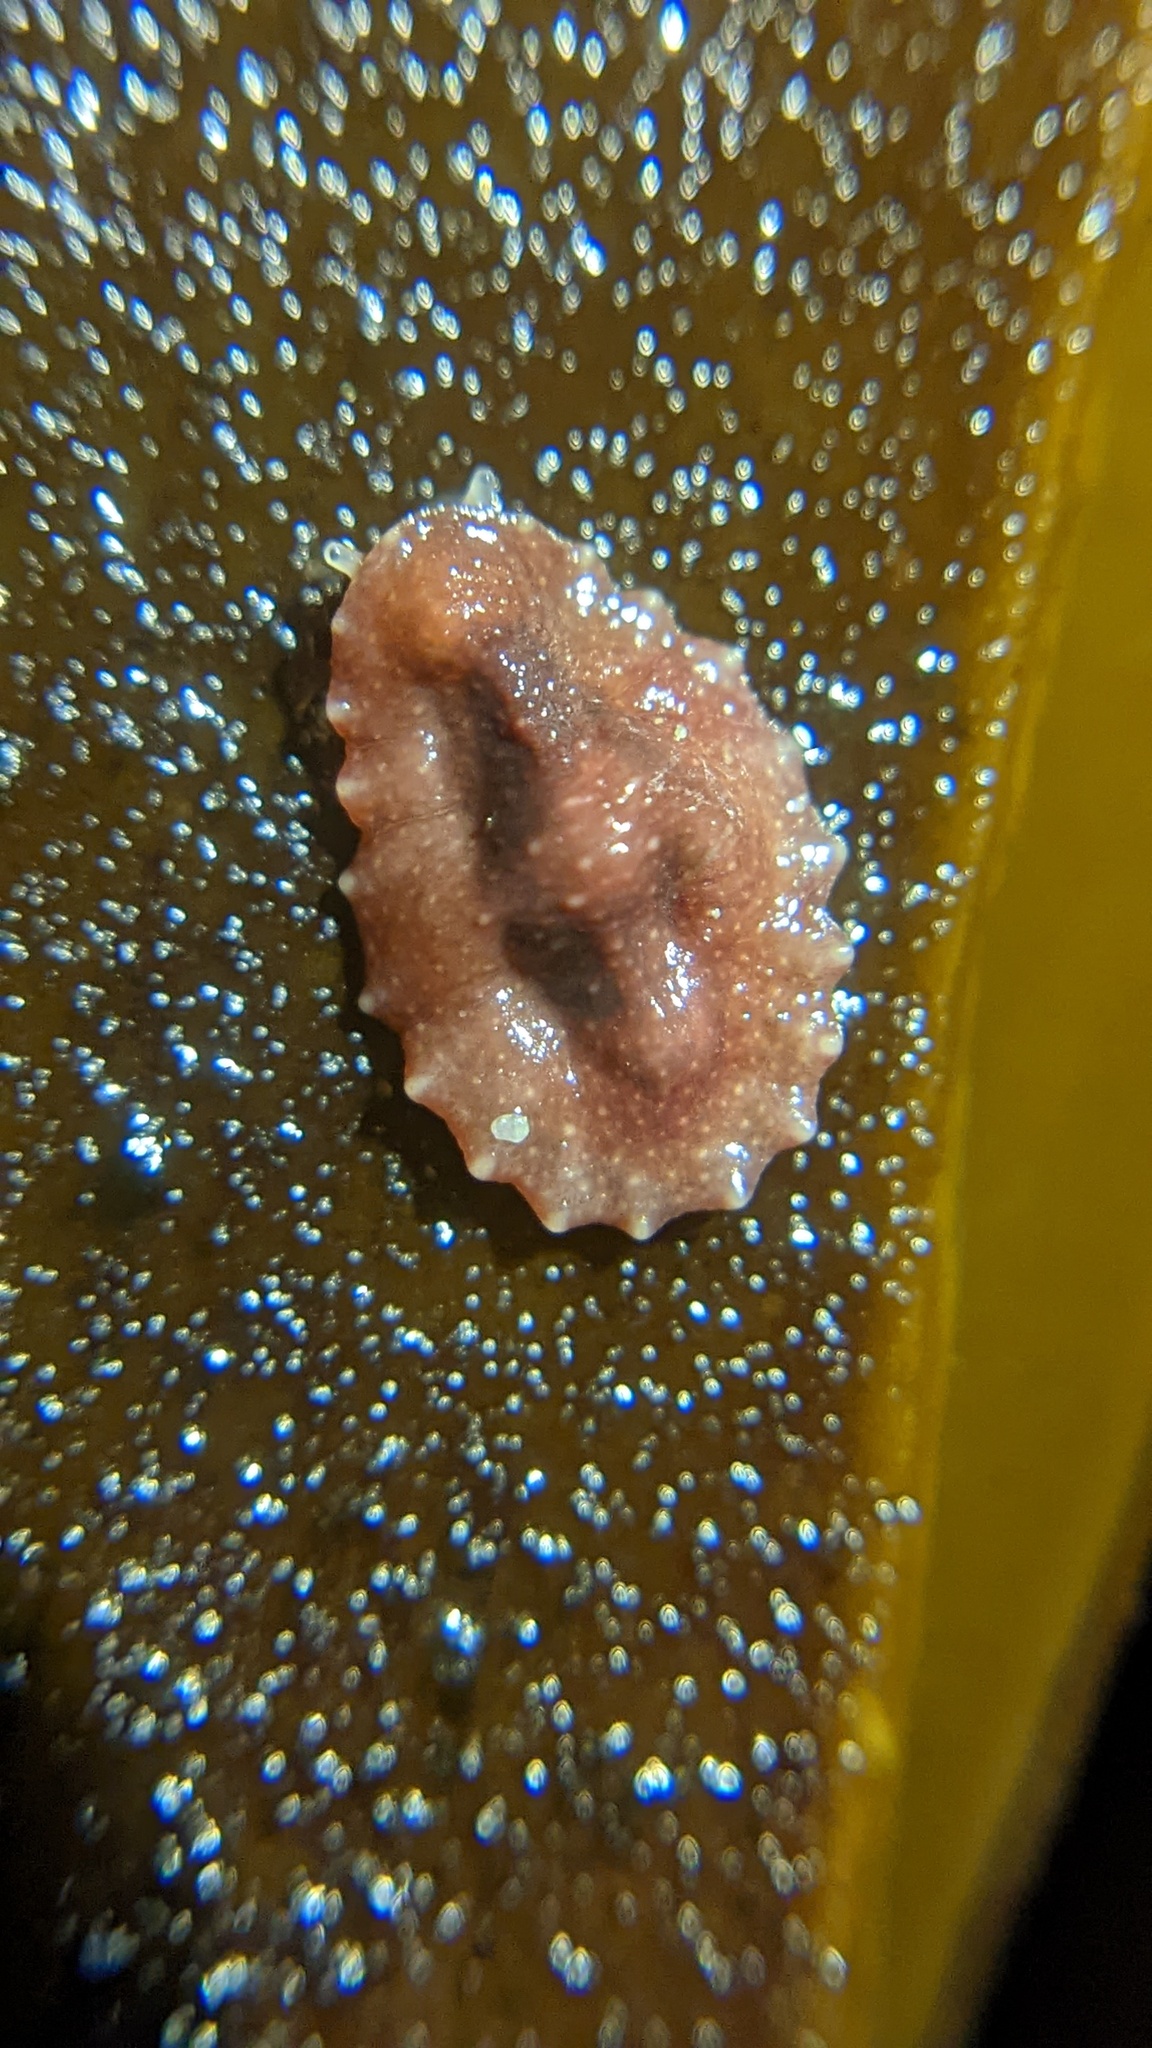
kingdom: Animalia
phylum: Mollusca
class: Gastropoda
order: Systellommatophora
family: Onchidiidae
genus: Onchidella
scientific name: Onchidella carpenteri
